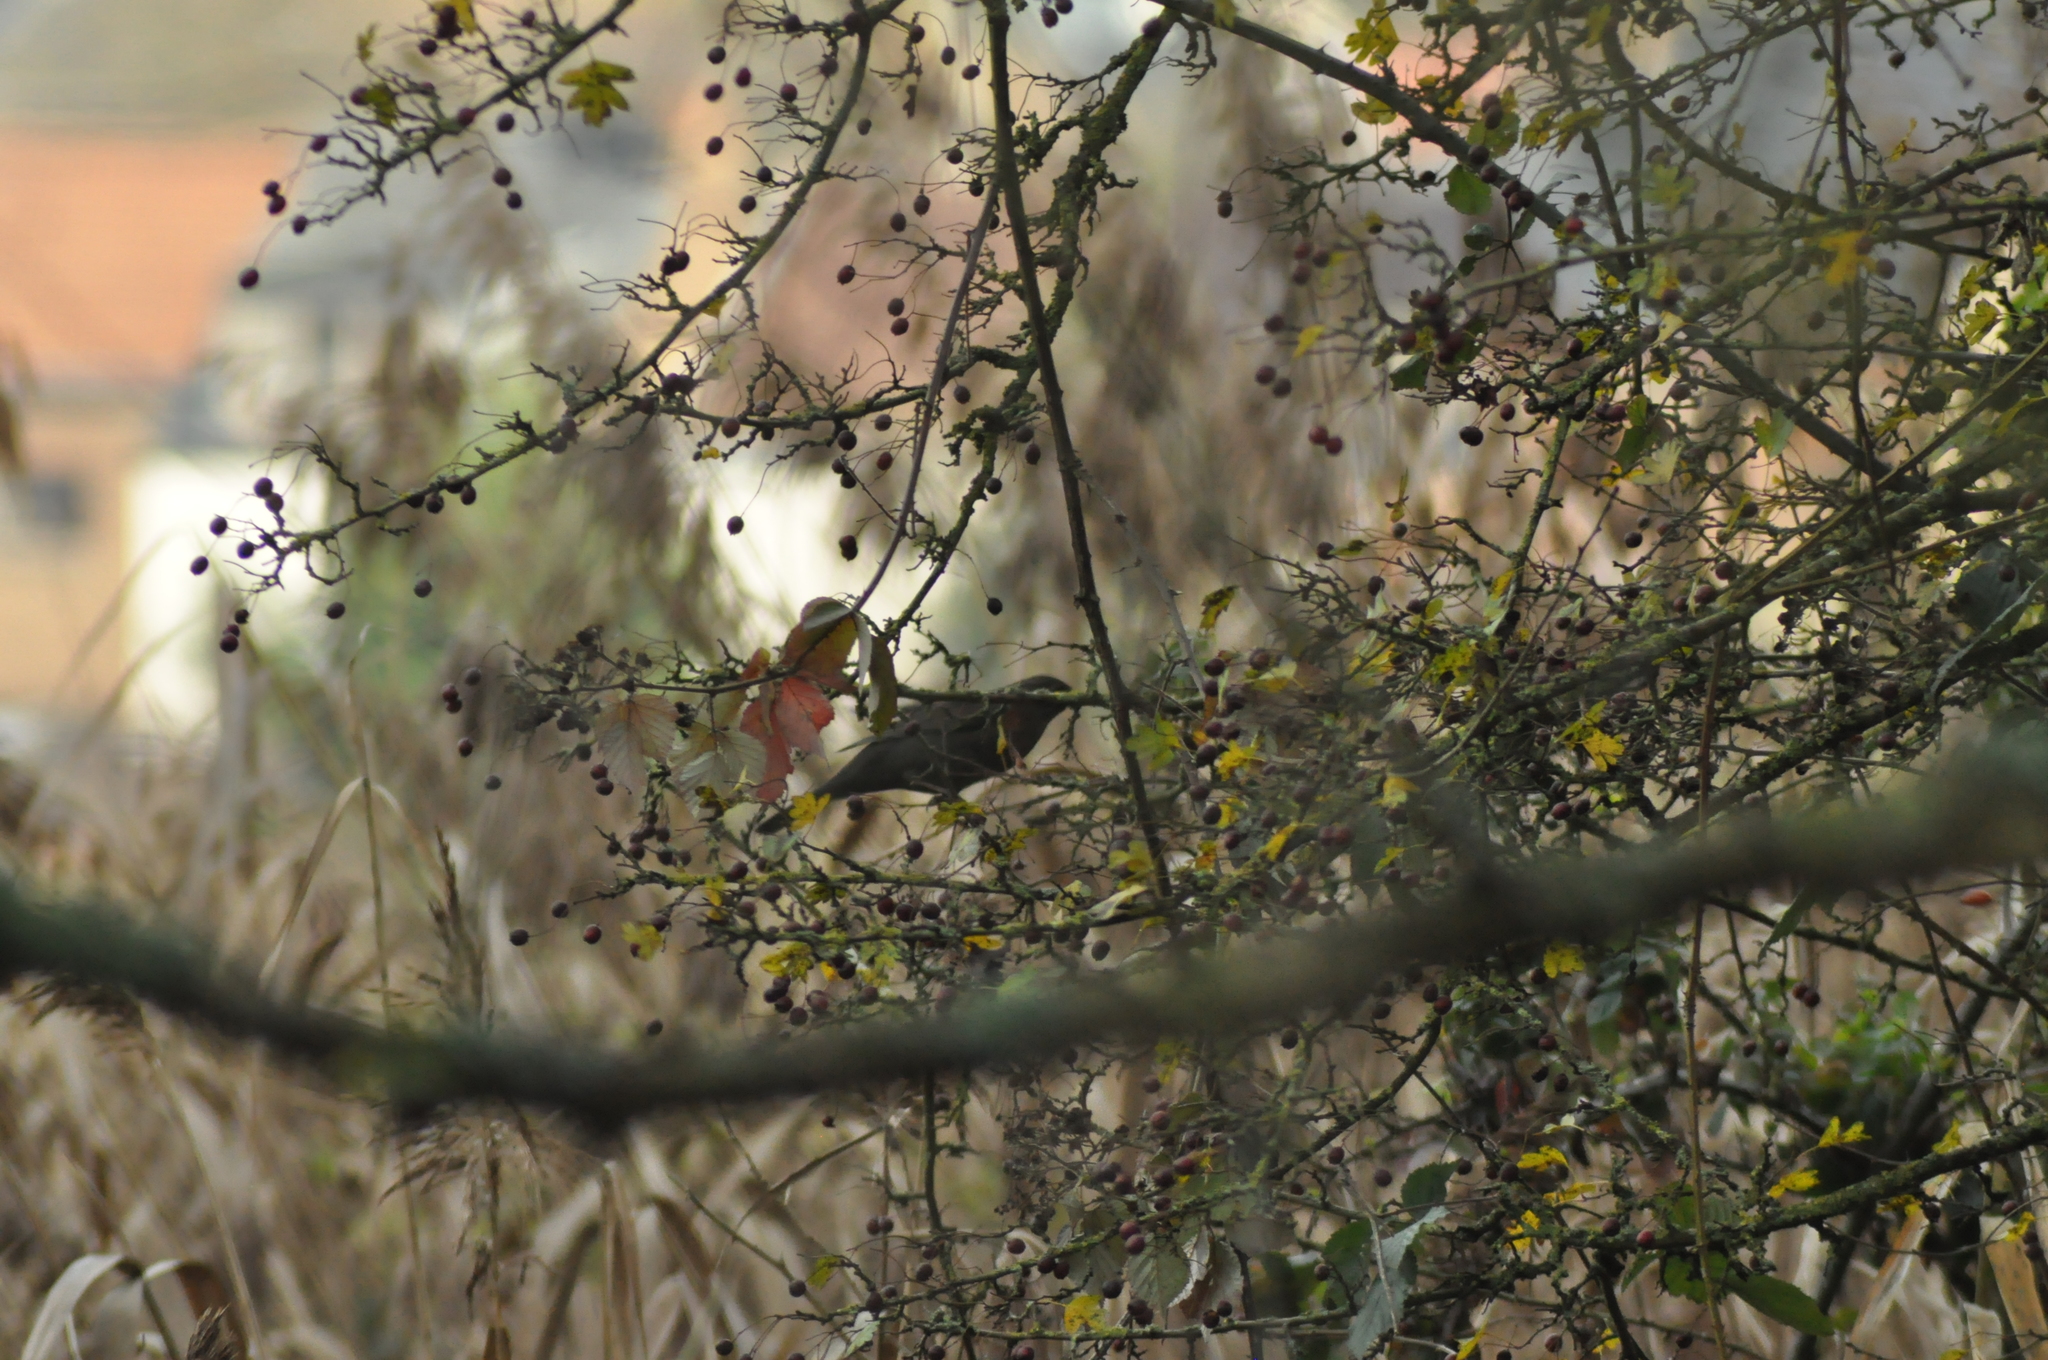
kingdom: Animalia
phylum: Chordata
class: Aves
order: Passeriformes
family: Turdidae
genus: Turdus
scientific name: Turdus merula
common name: Common blackbird
